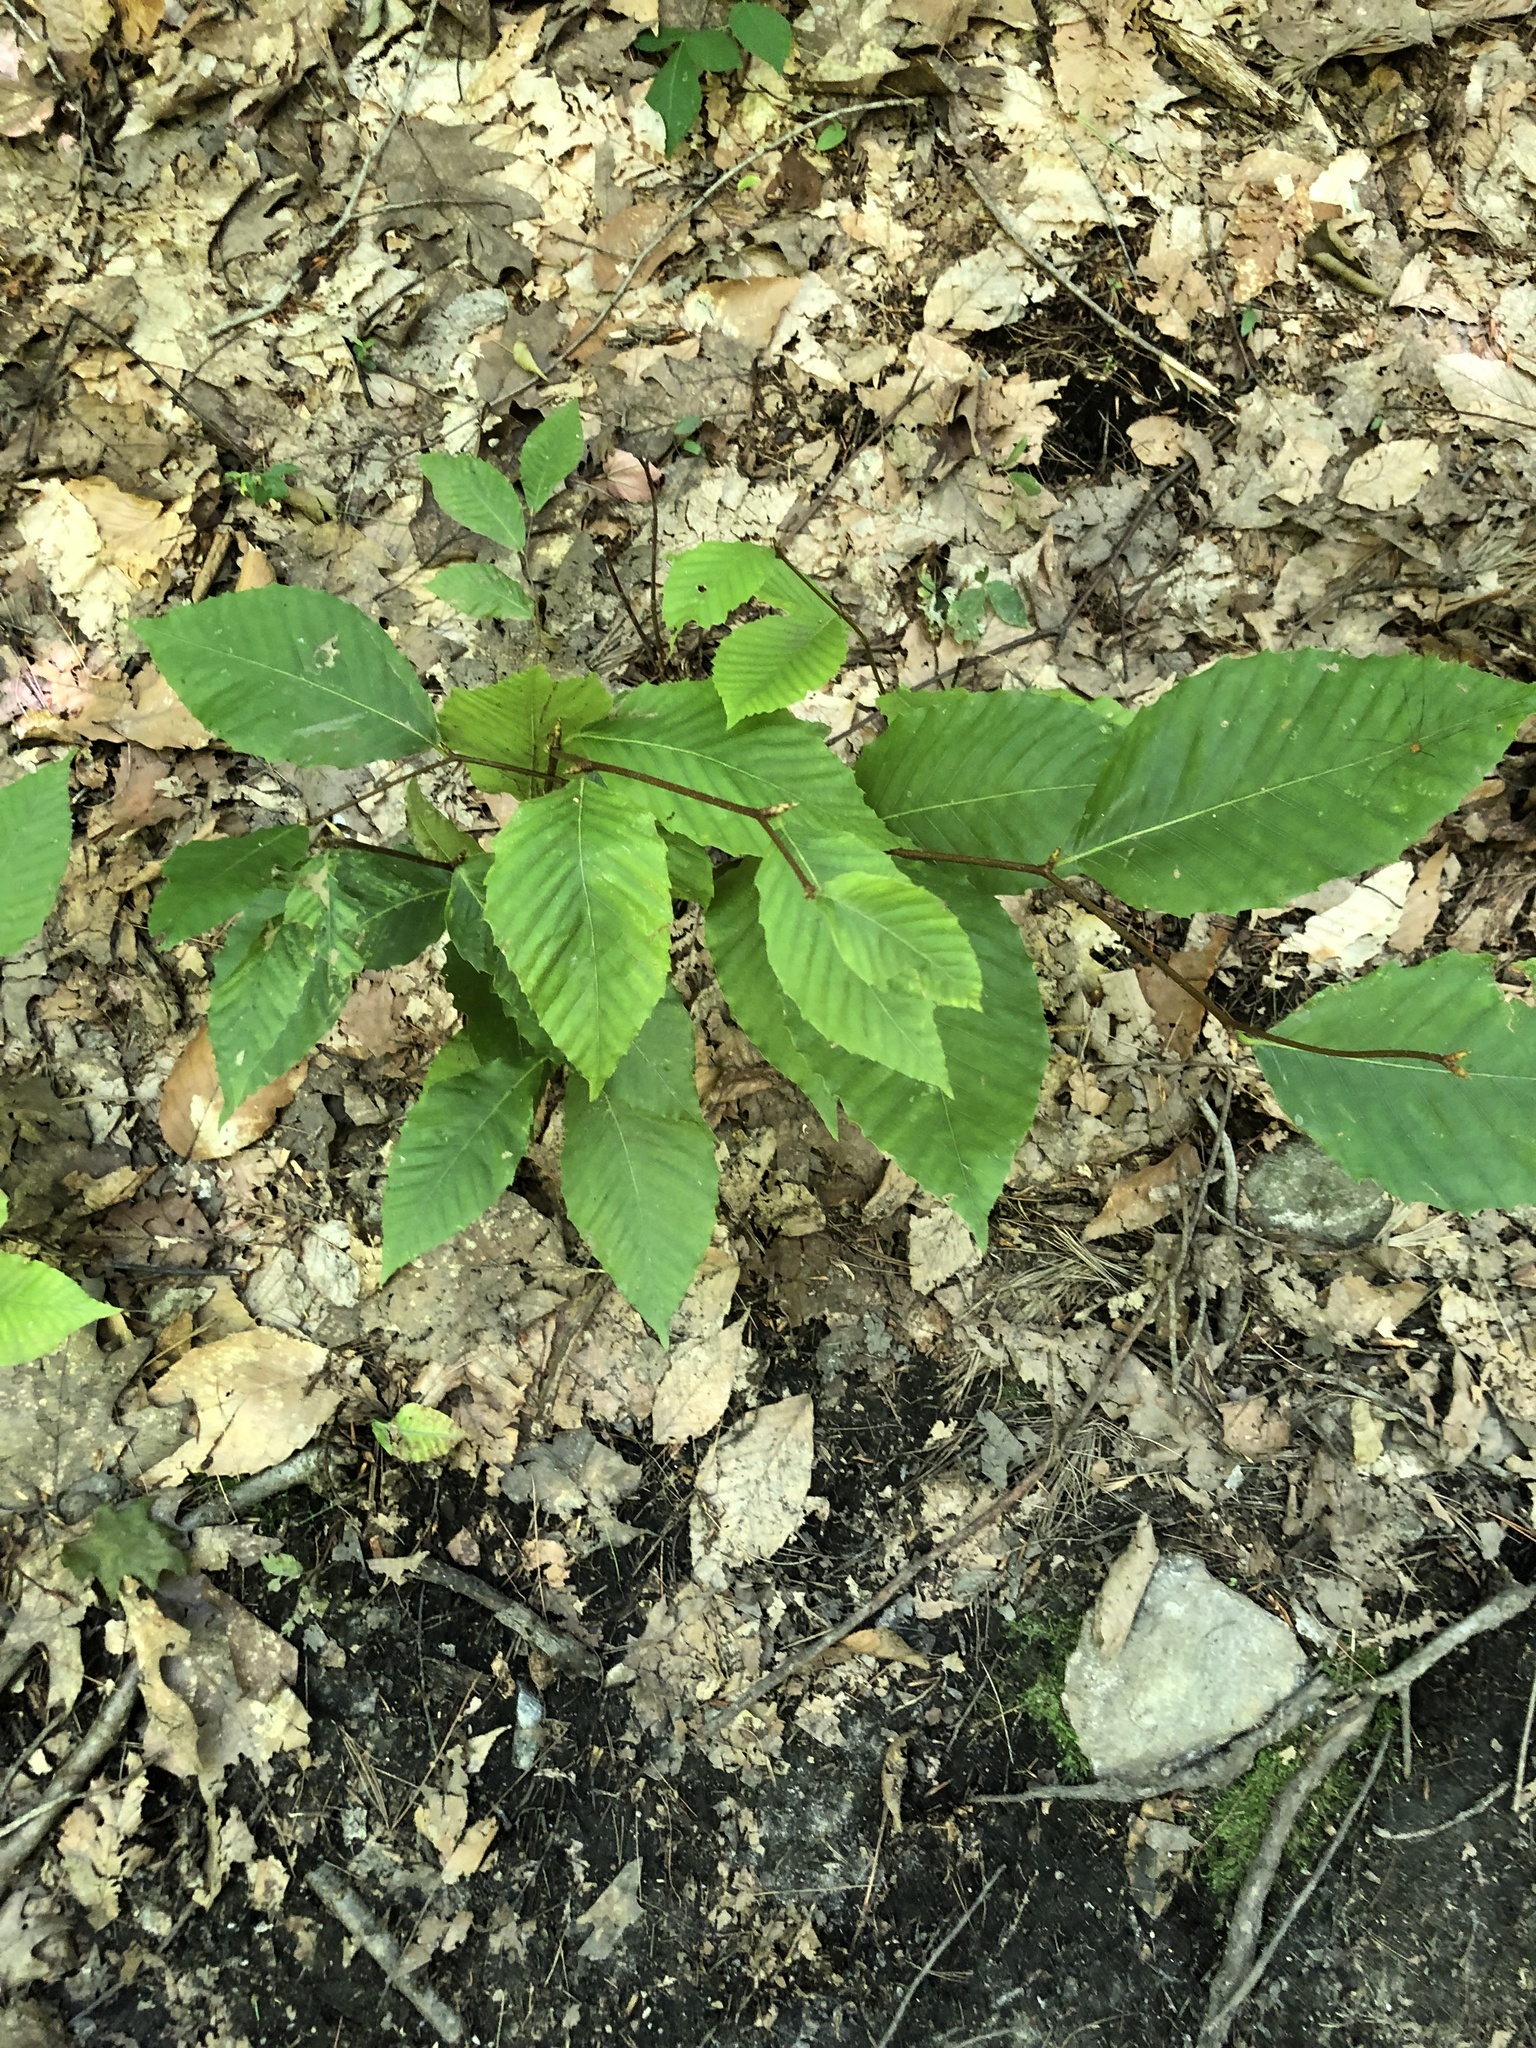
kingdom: Plantae
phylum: Tracheophyta
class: Magnoliopsida
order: Fagales
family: Fagaceae
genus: Fagus
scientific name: Fagus grandifolia
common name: American beech
